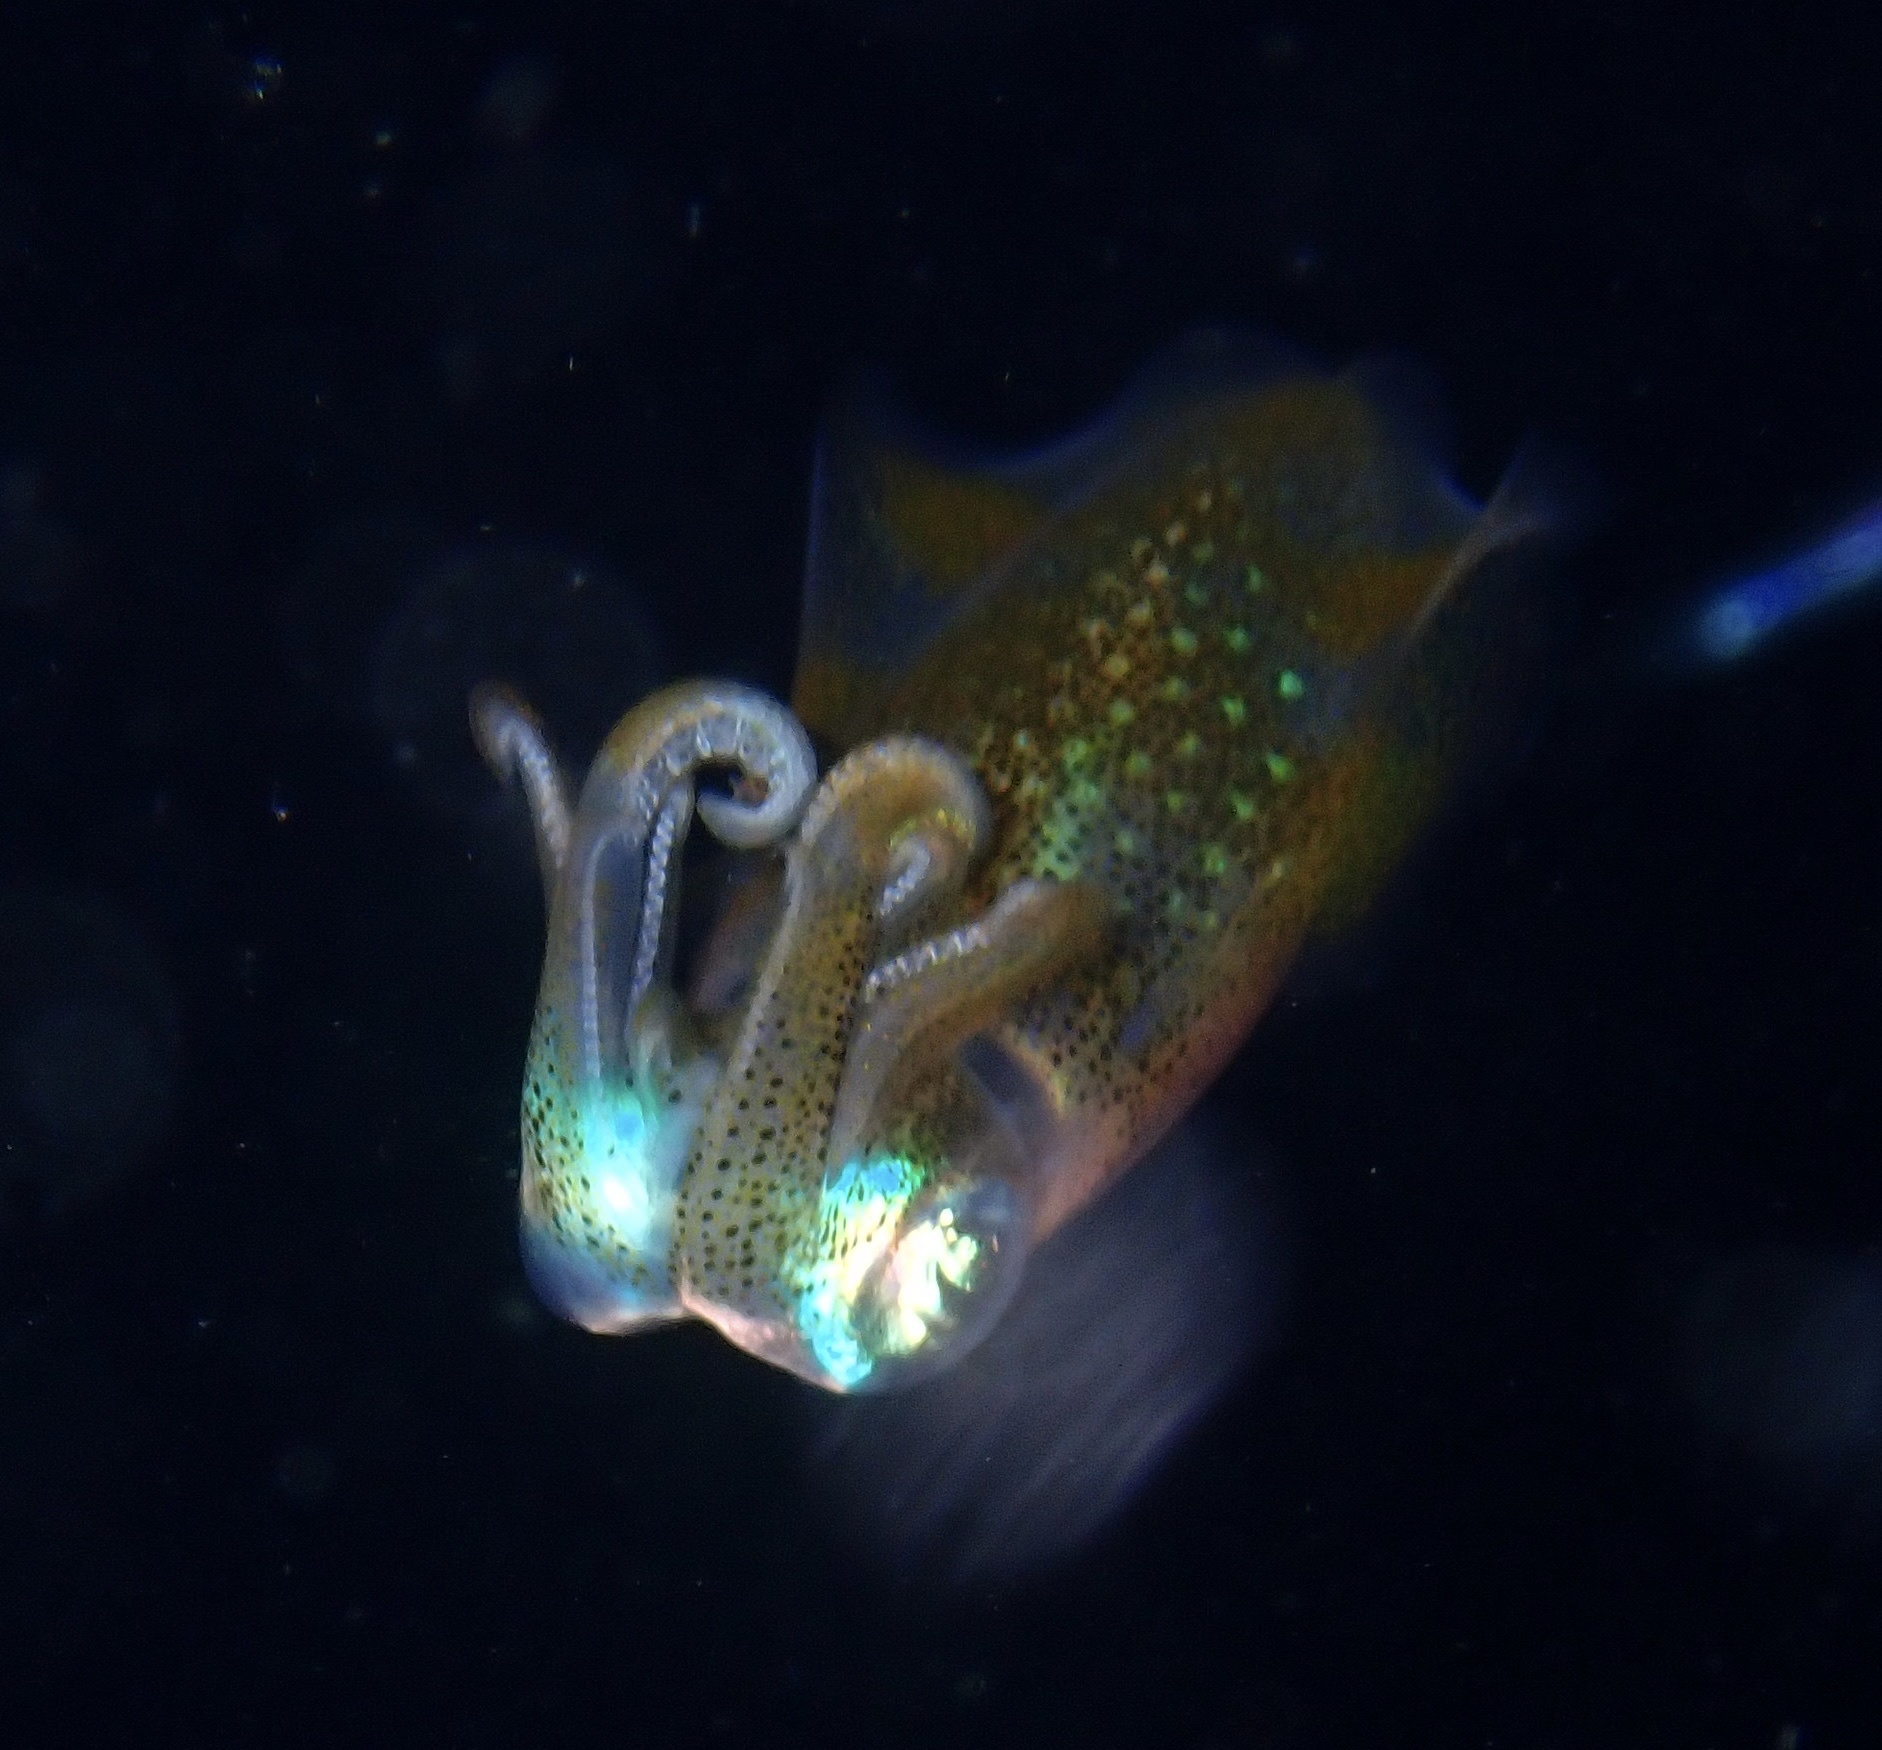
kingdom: Animalia
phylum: Mollusca
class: Cephalopoda
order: Myopsida
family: Loliginidae
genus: Sepioteuthis
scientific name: Sepioteuthis lessoniana
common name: Bigfin reef squid
